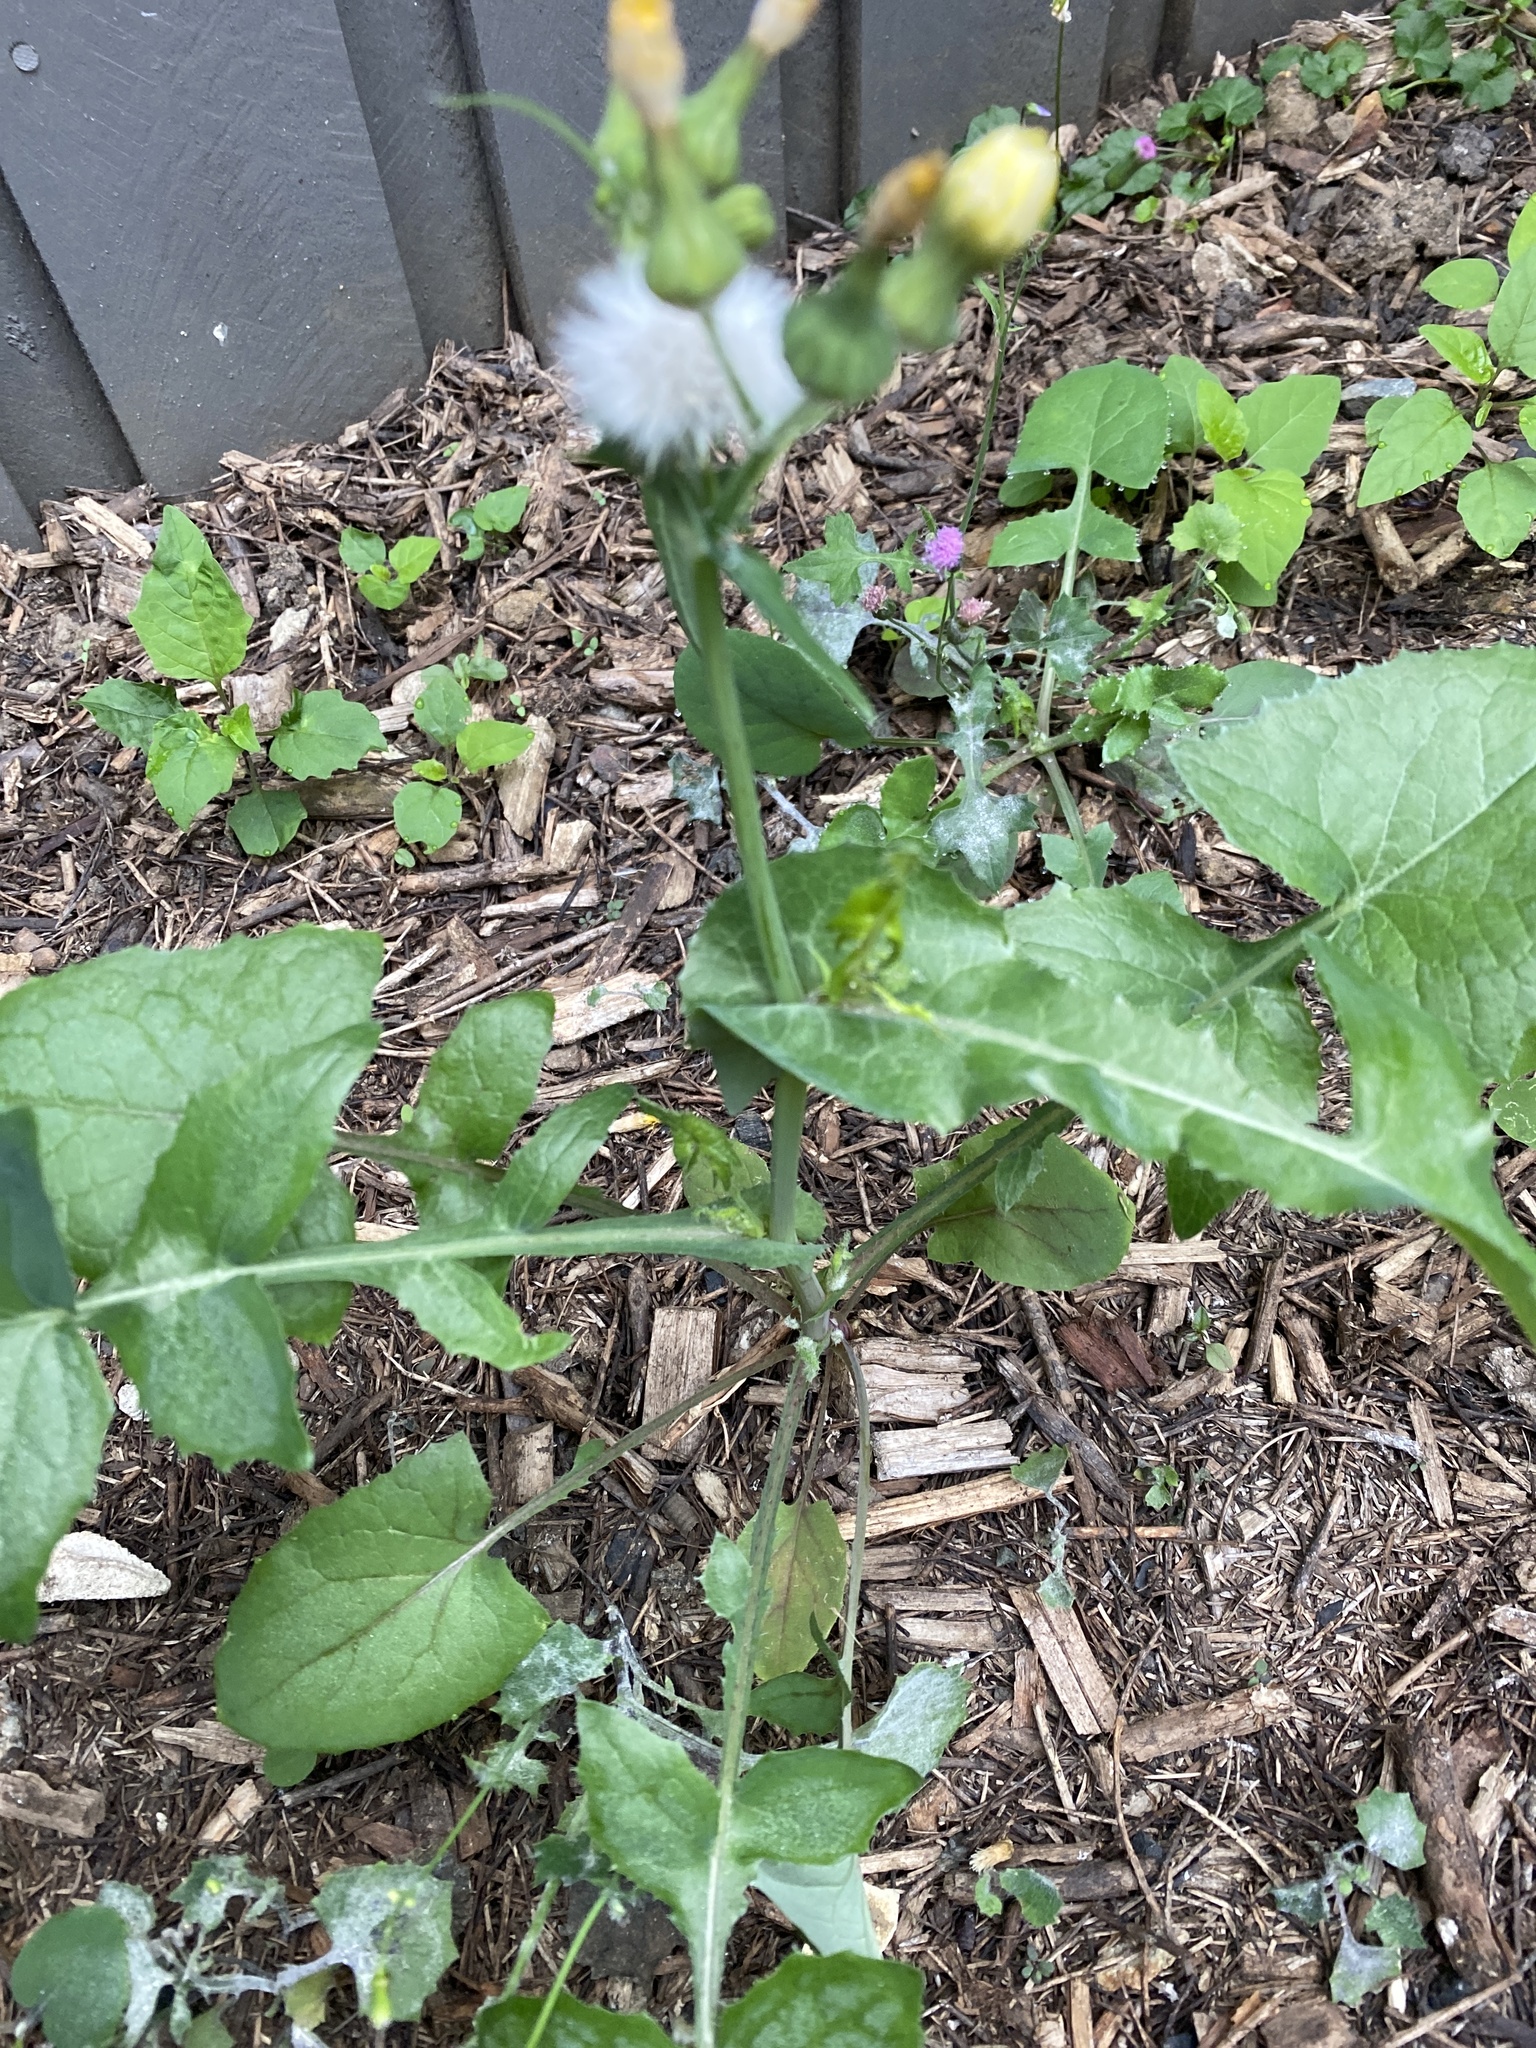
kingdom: Plantae
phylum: Tracheophyta
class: Magnoliopsida
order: Asterales
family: Asteraceae
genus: Sonchus
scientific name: Sonchus oleraceus
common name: Common sowthistle
